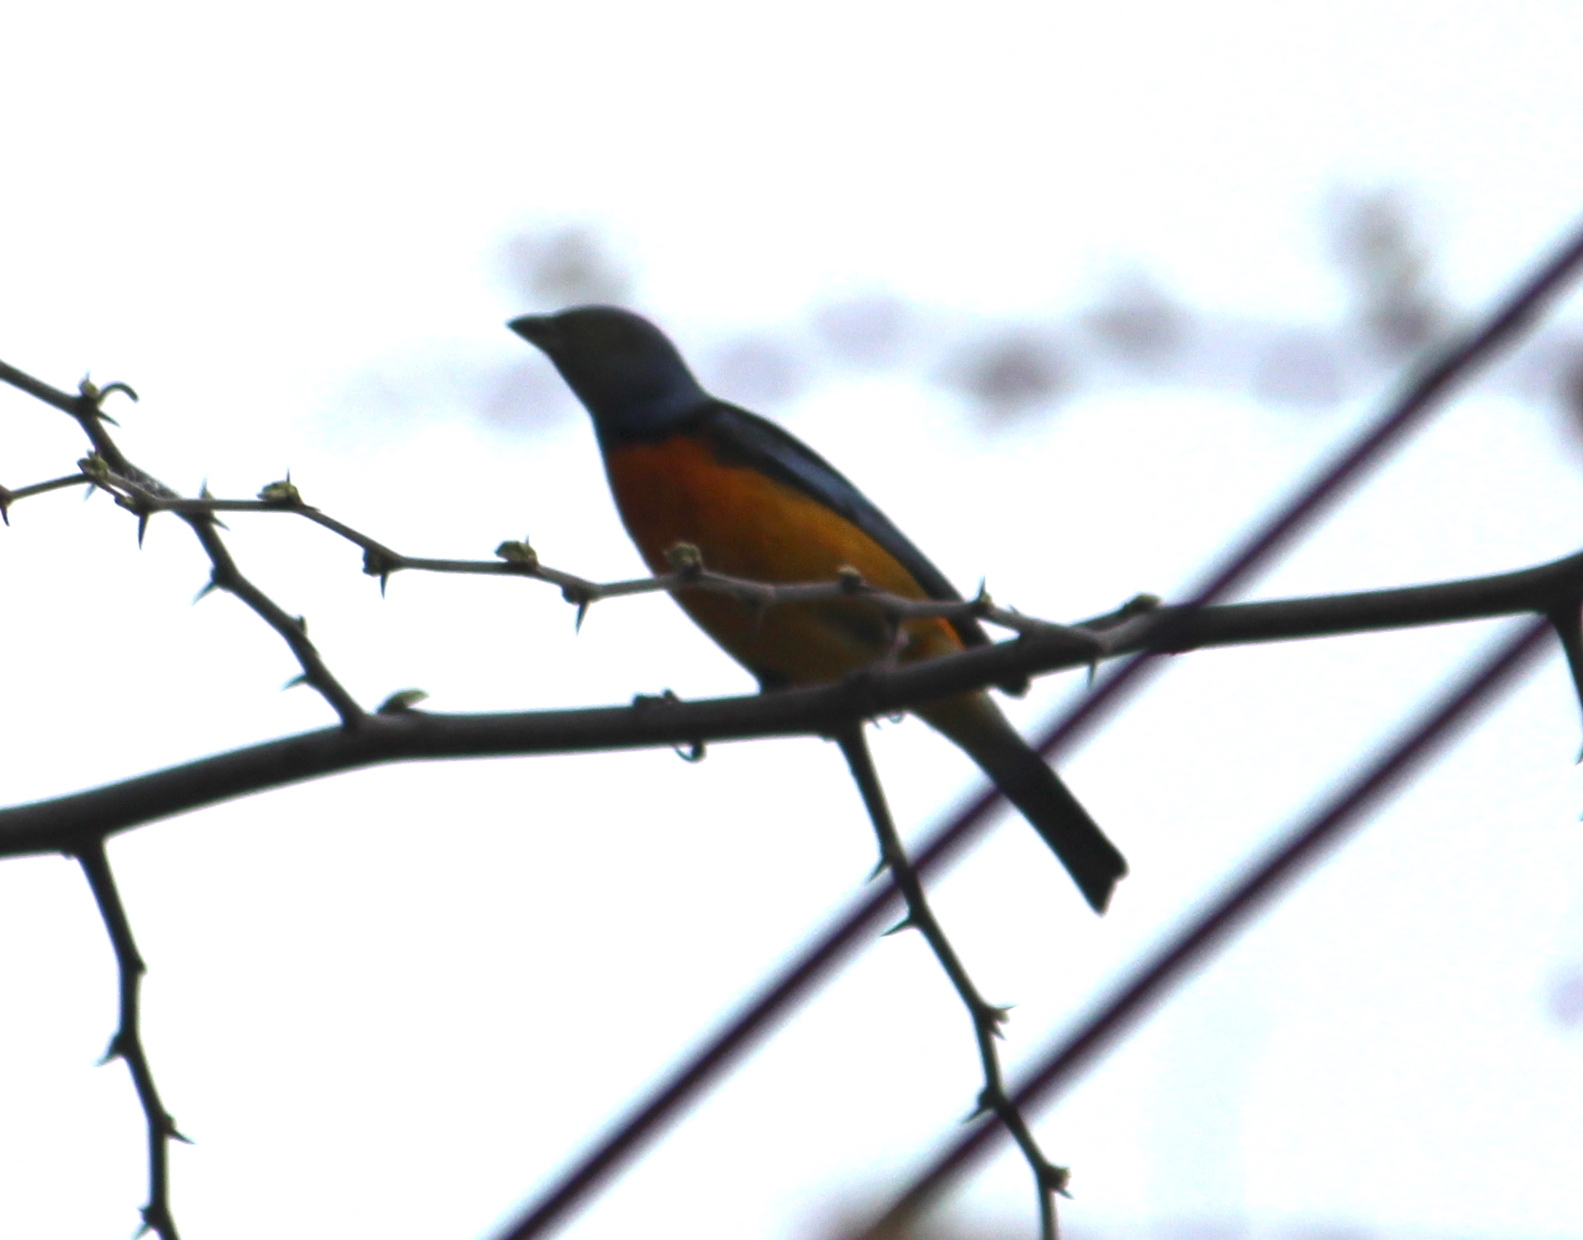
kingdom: Animalia
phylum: Chordata
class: Aves
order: Passeriformes
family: Thraupidae
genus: Rauenia
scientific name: Rauenia bonariensis
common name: Blue-and-yellow tanager
